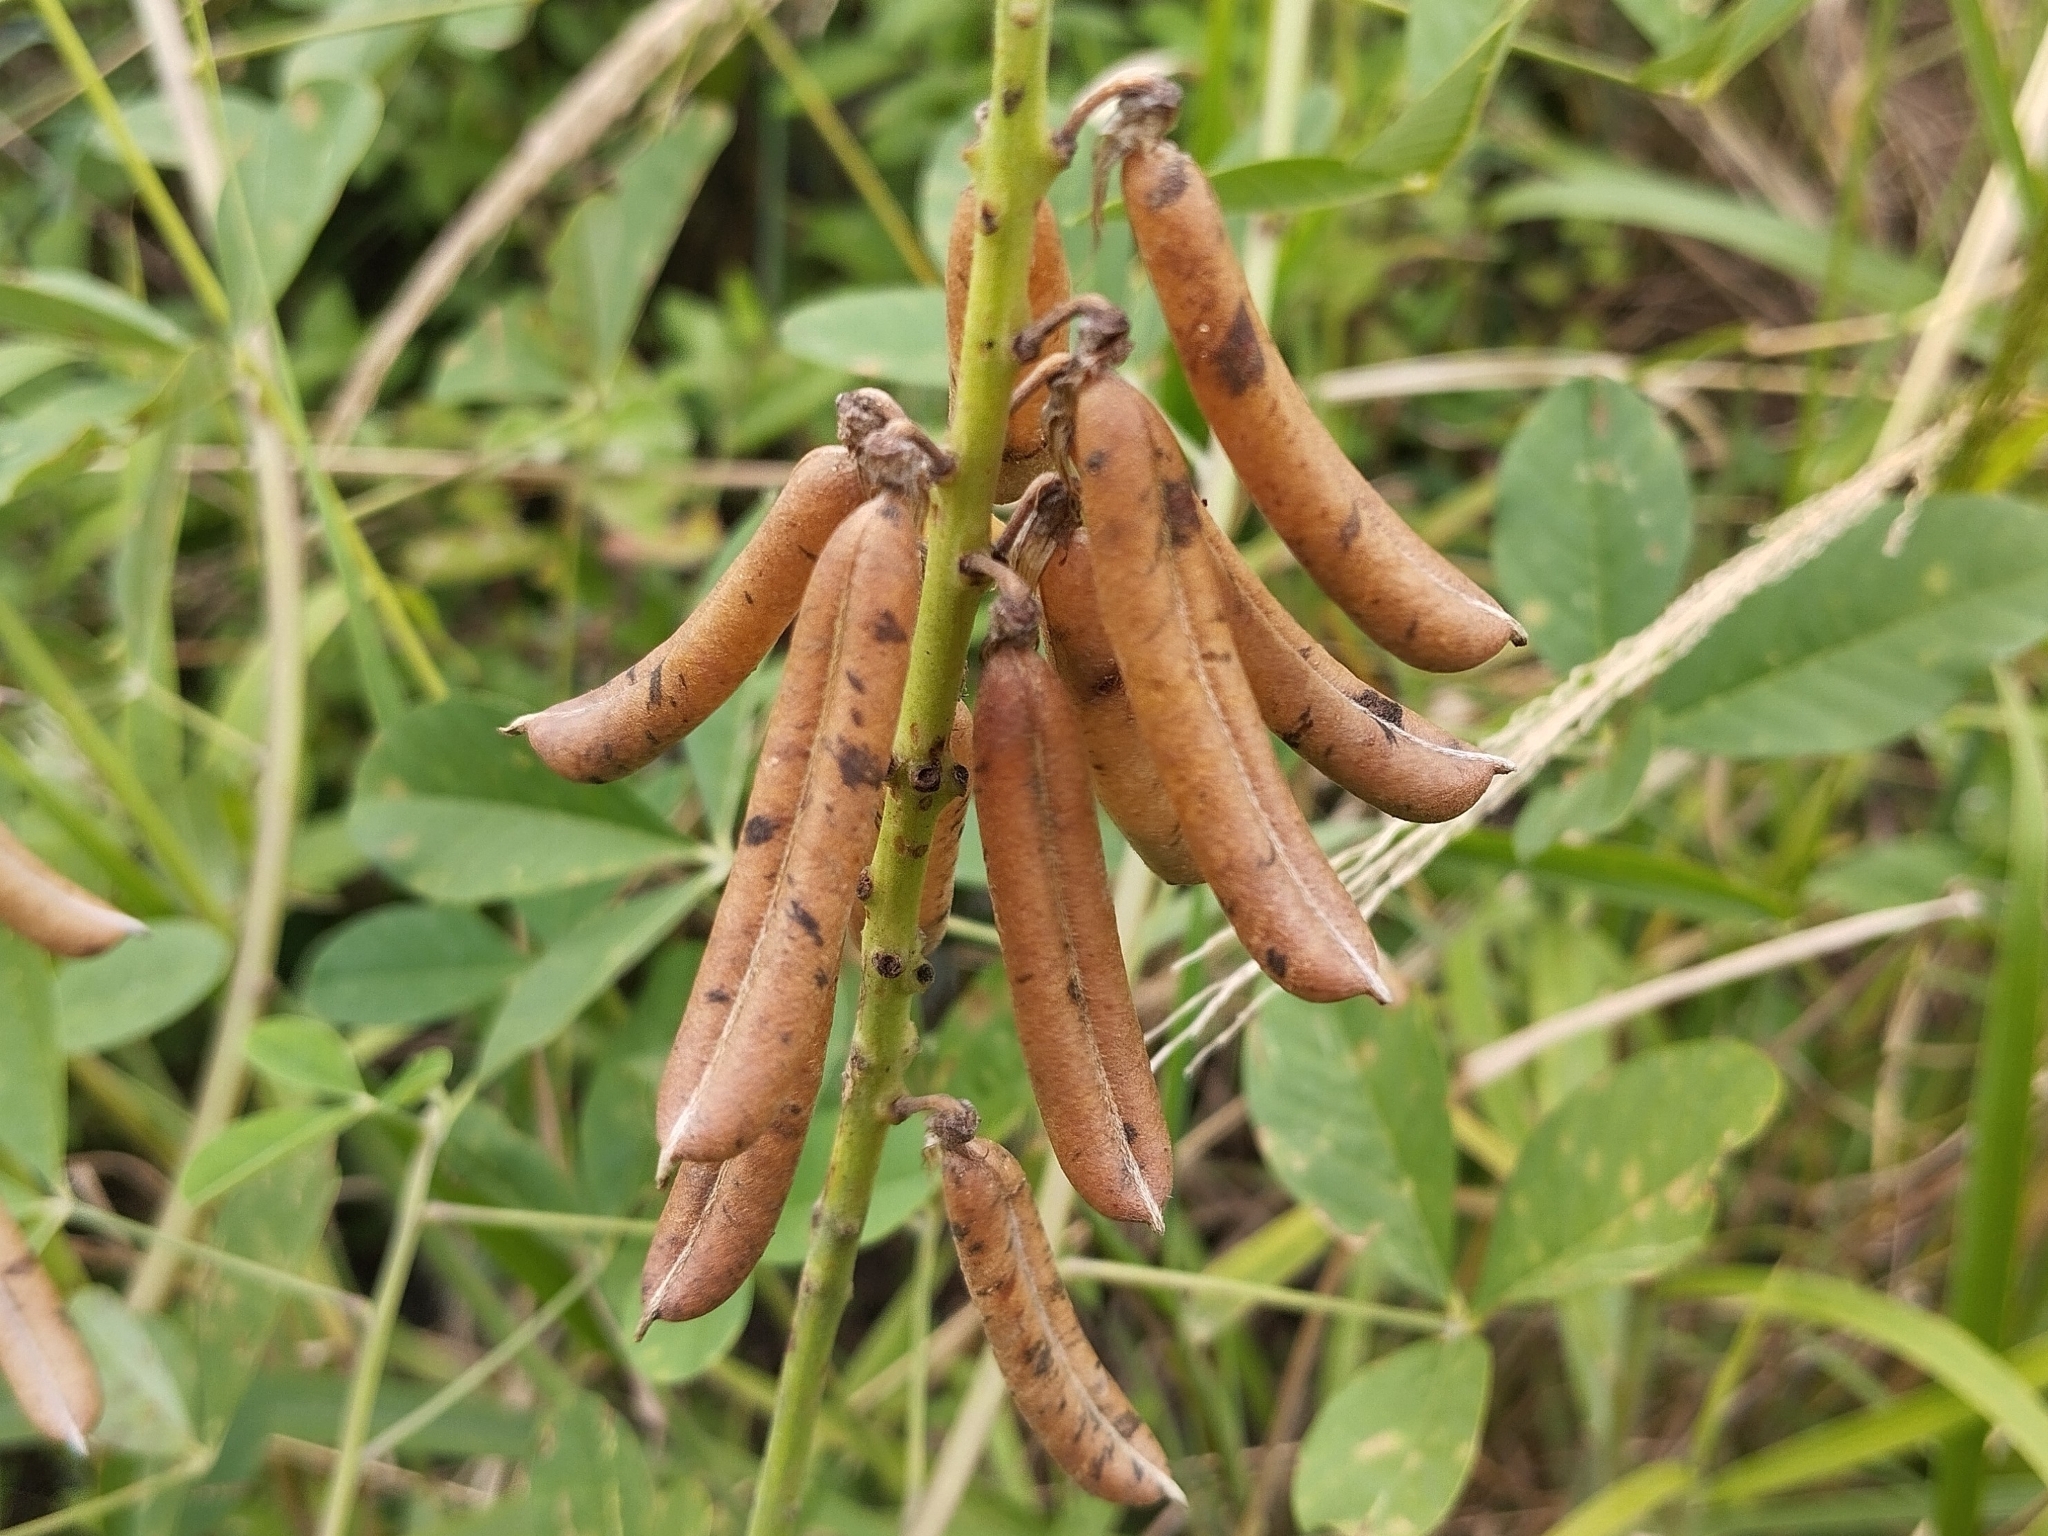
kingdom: Plantae
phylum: Tracheophyta
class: Magnoliopsida
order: Fabales
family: Fabaceae
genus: Crotalaria
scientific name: Crotalaria pallida
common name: Smooth rattlebox
